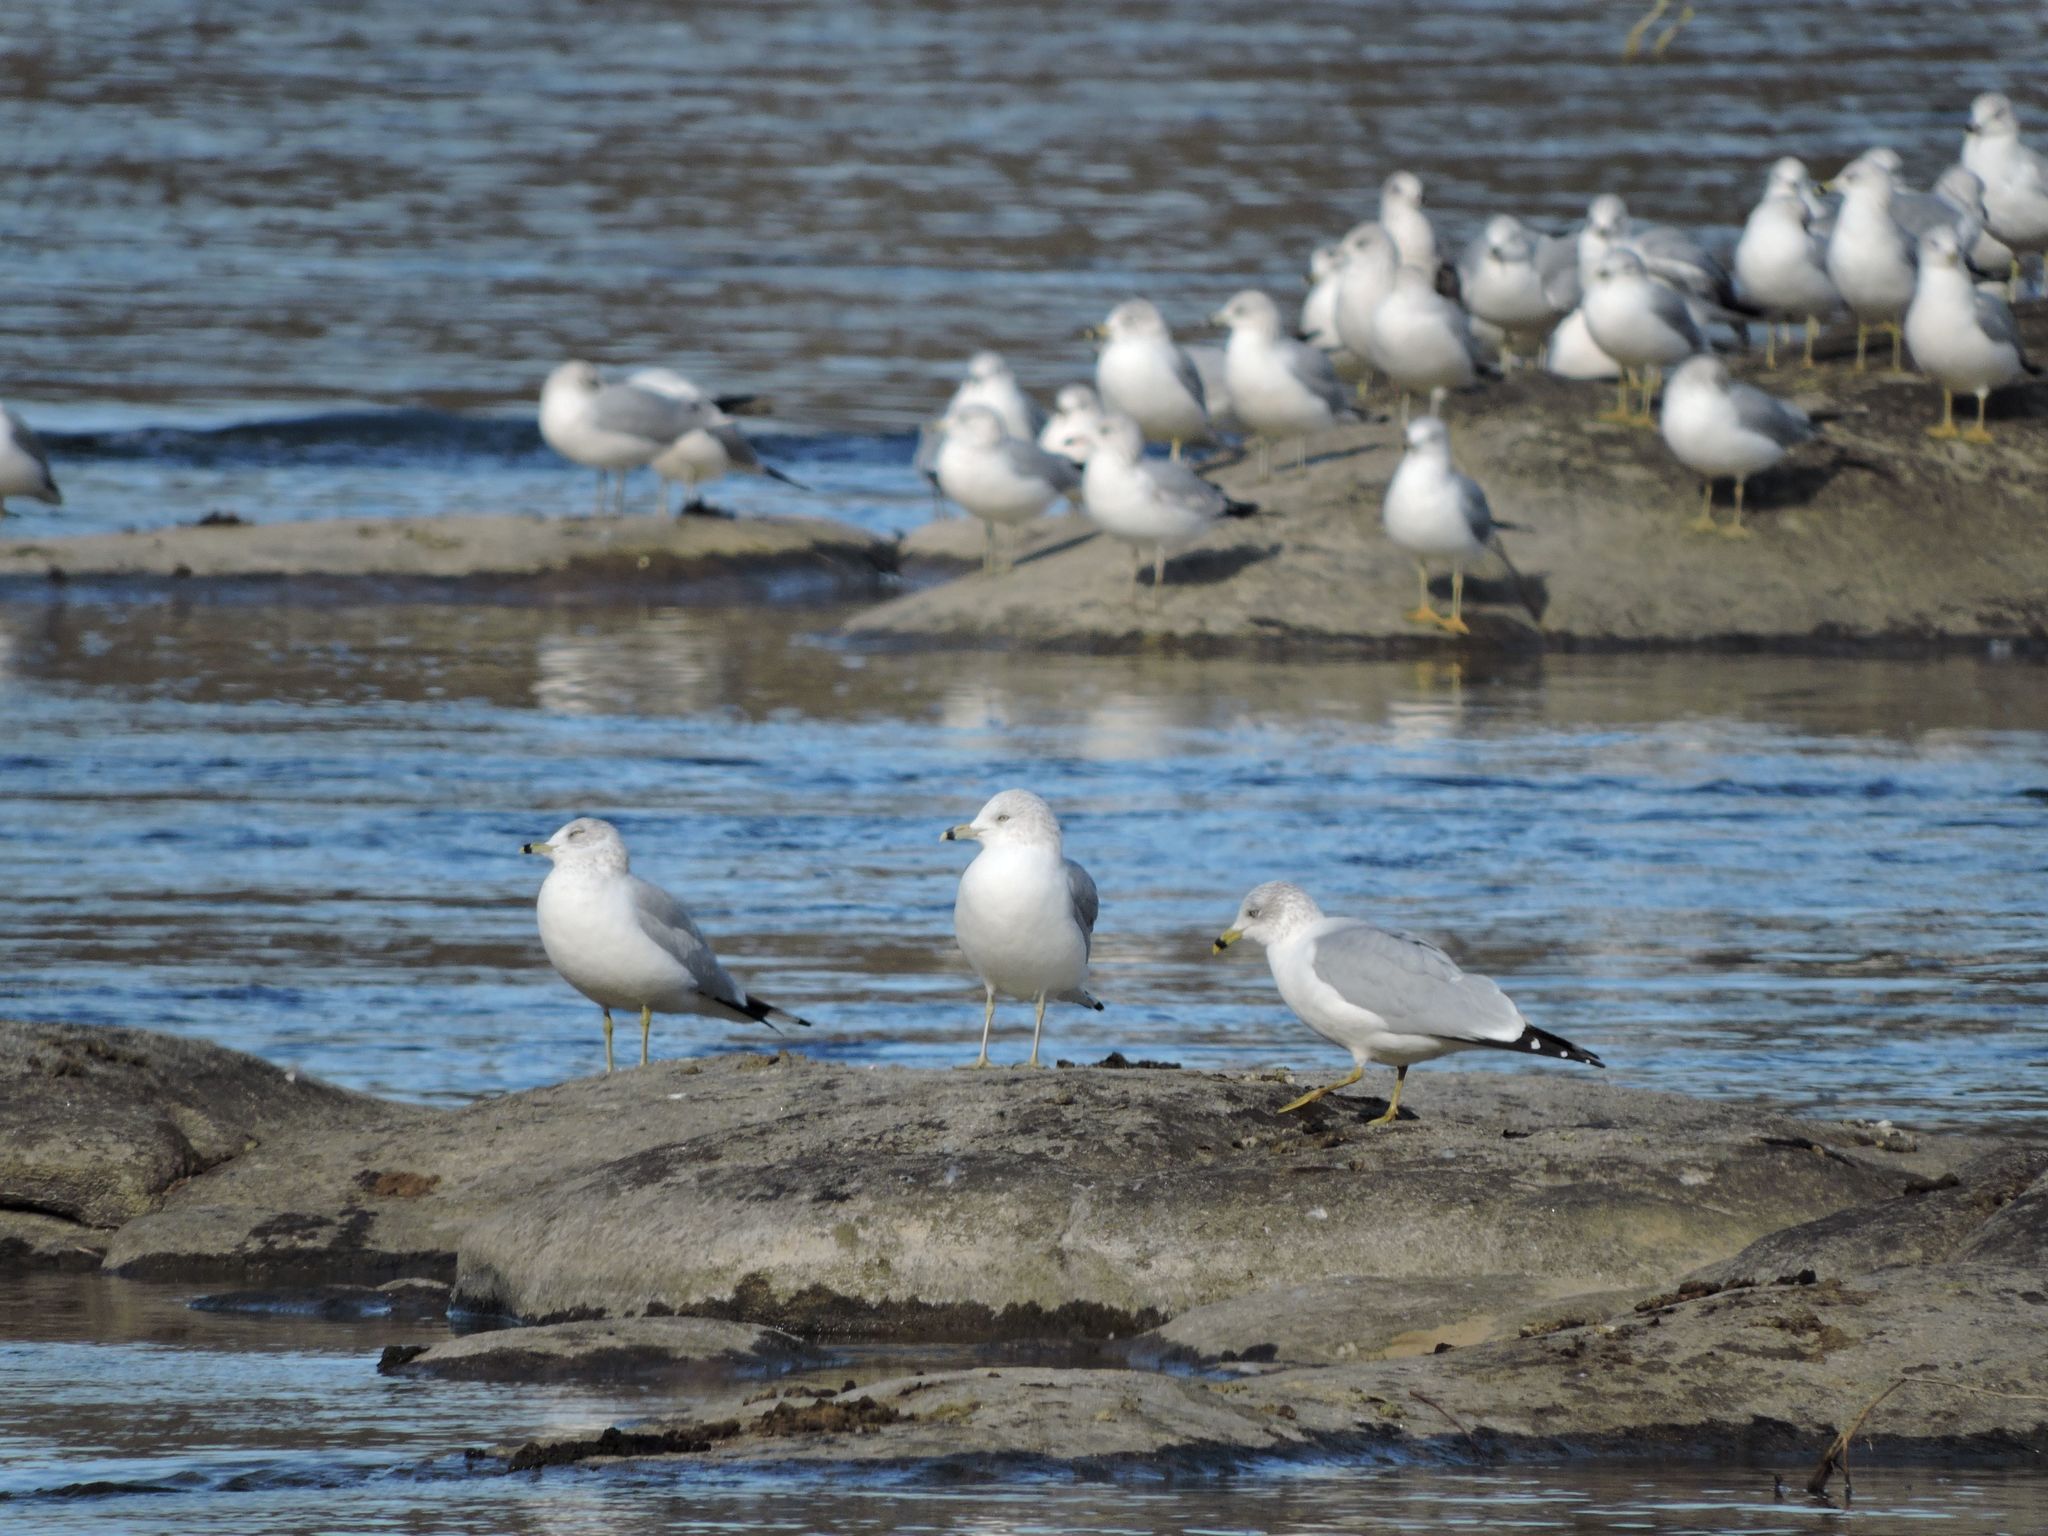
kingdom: Animalia
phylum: Chordata
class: Aves
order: Charadriiformes
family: Laridae
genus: Larus
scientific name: Larus delawarensis
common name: Ring-billed gull
